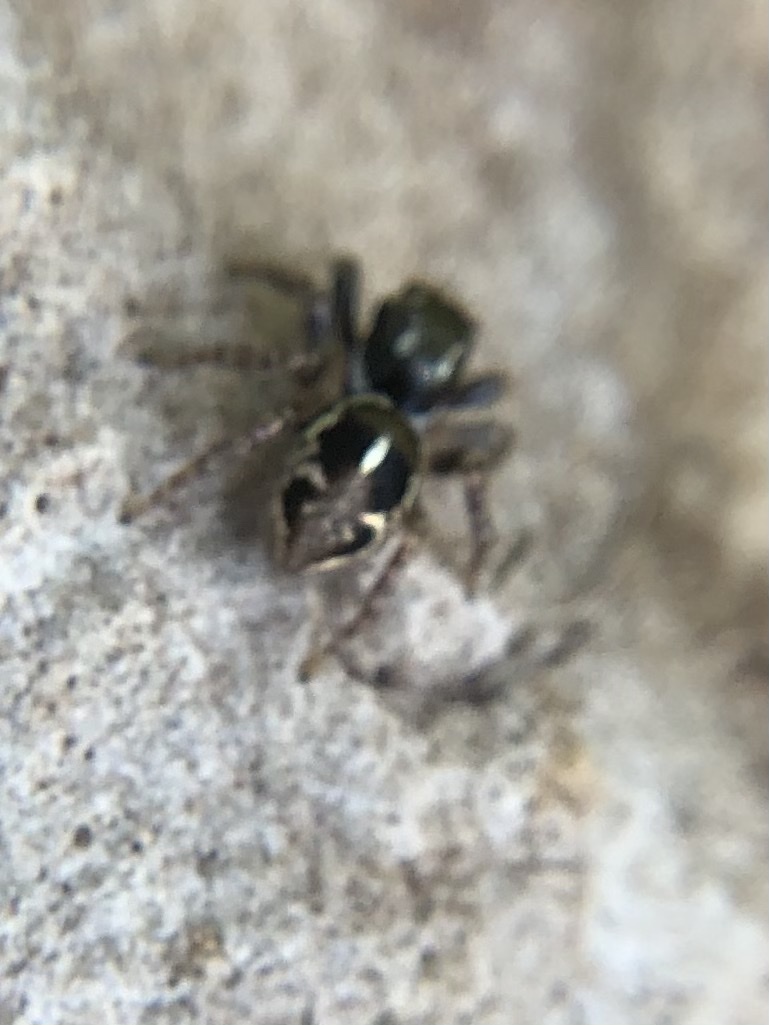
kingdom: Animalia
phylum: Arthropoda
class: Arachnida
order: Araneae
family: Salticidae
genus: Anasaitis
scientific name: Anasaitis canosa
